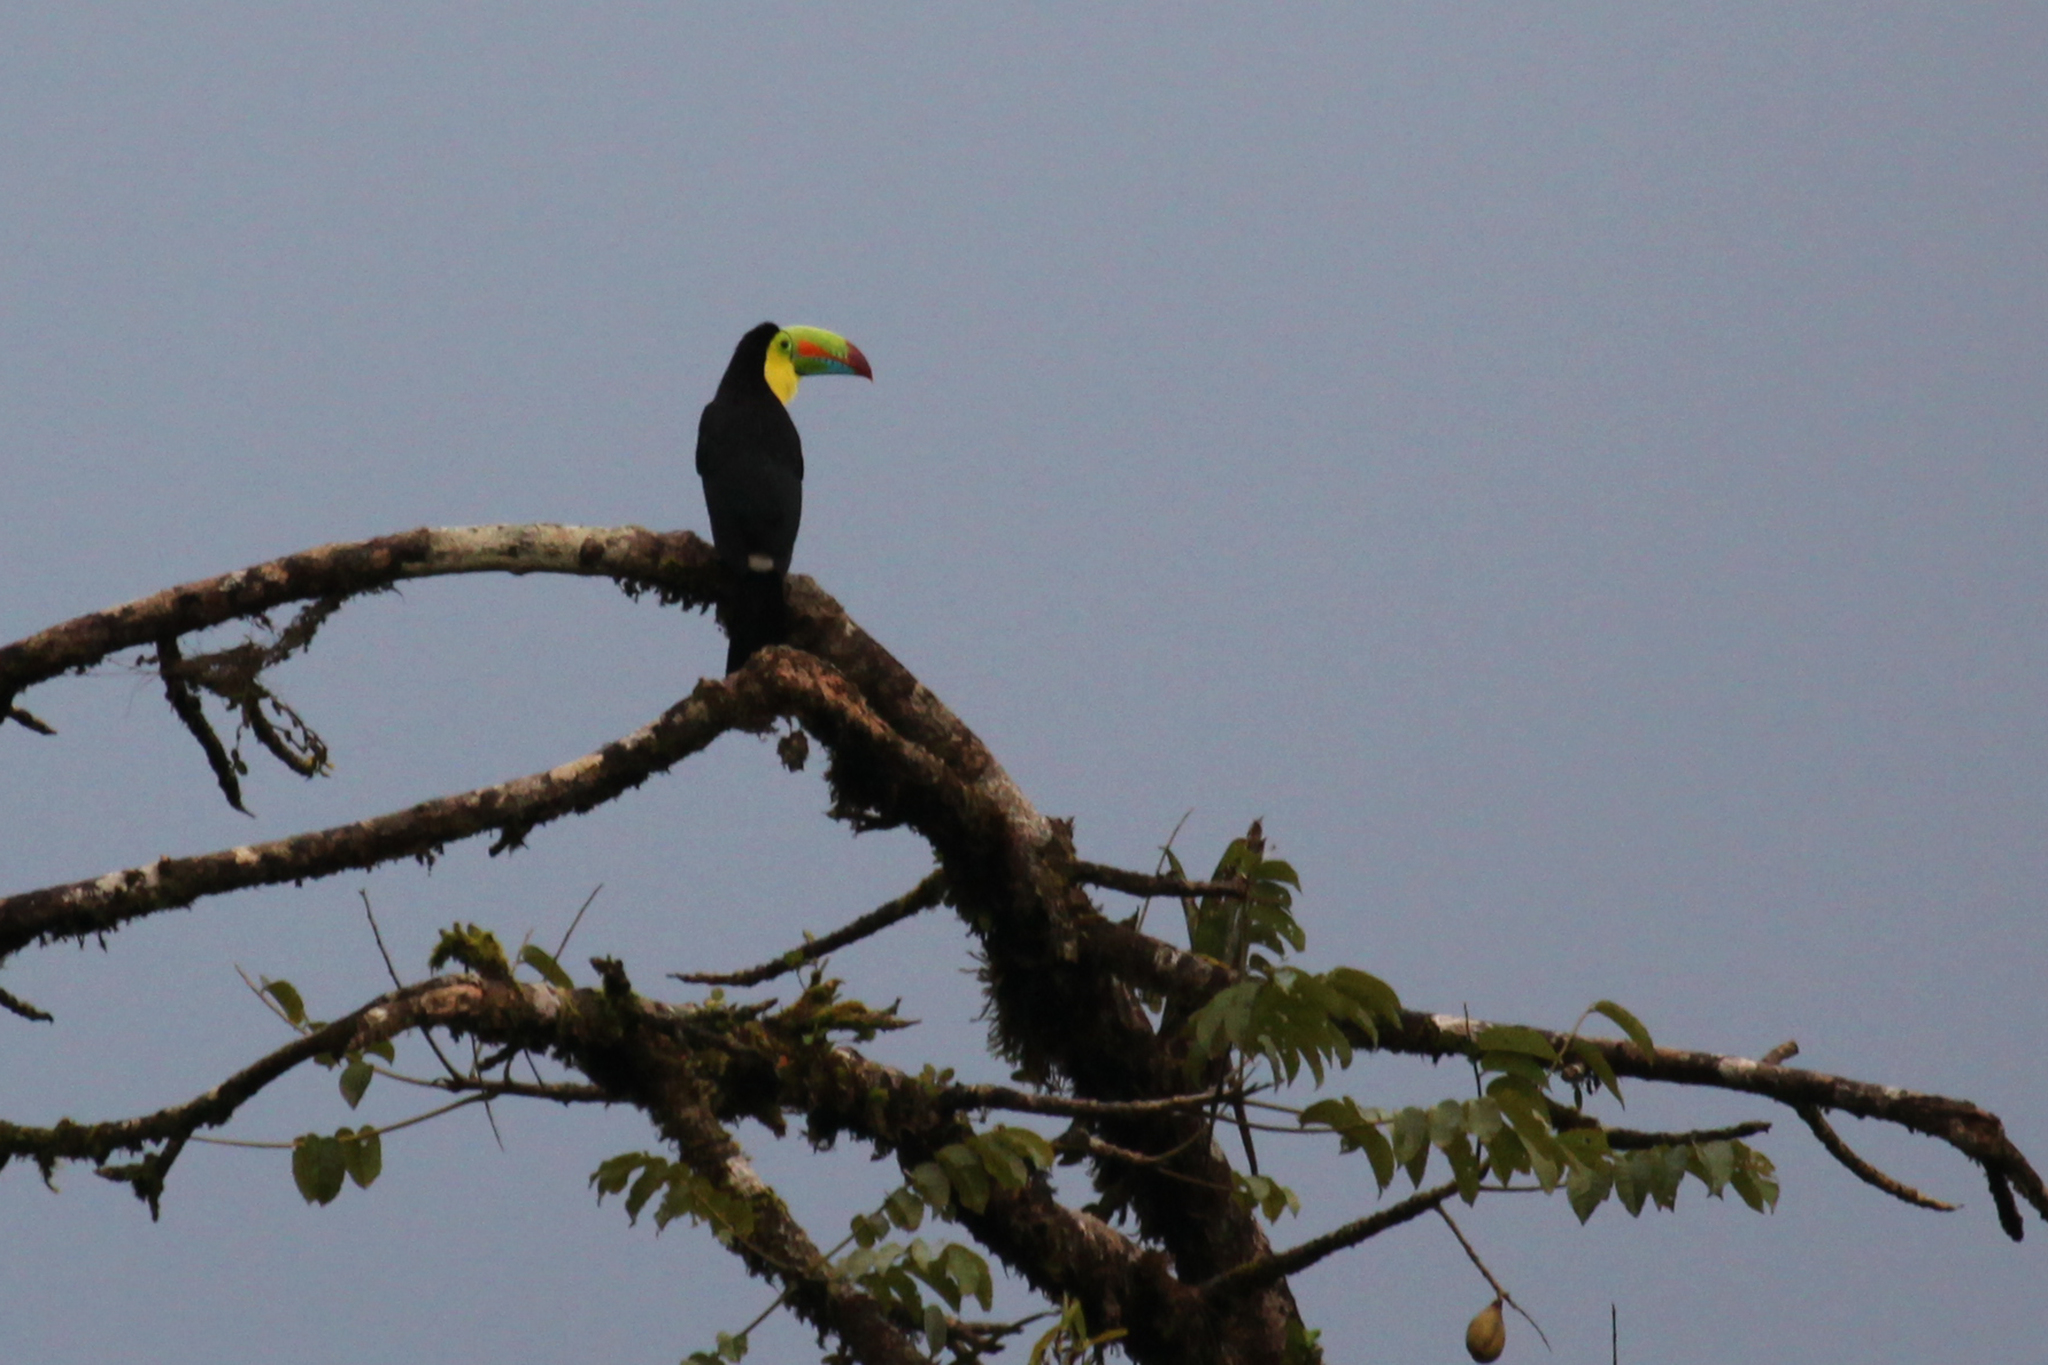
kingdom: Animalia
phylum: Chordata
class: Aves
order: Piciformes
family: Ramphastidae
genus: Ramphastos
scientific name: Ramphastos sulfuratus
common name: Keel-billed toucan
